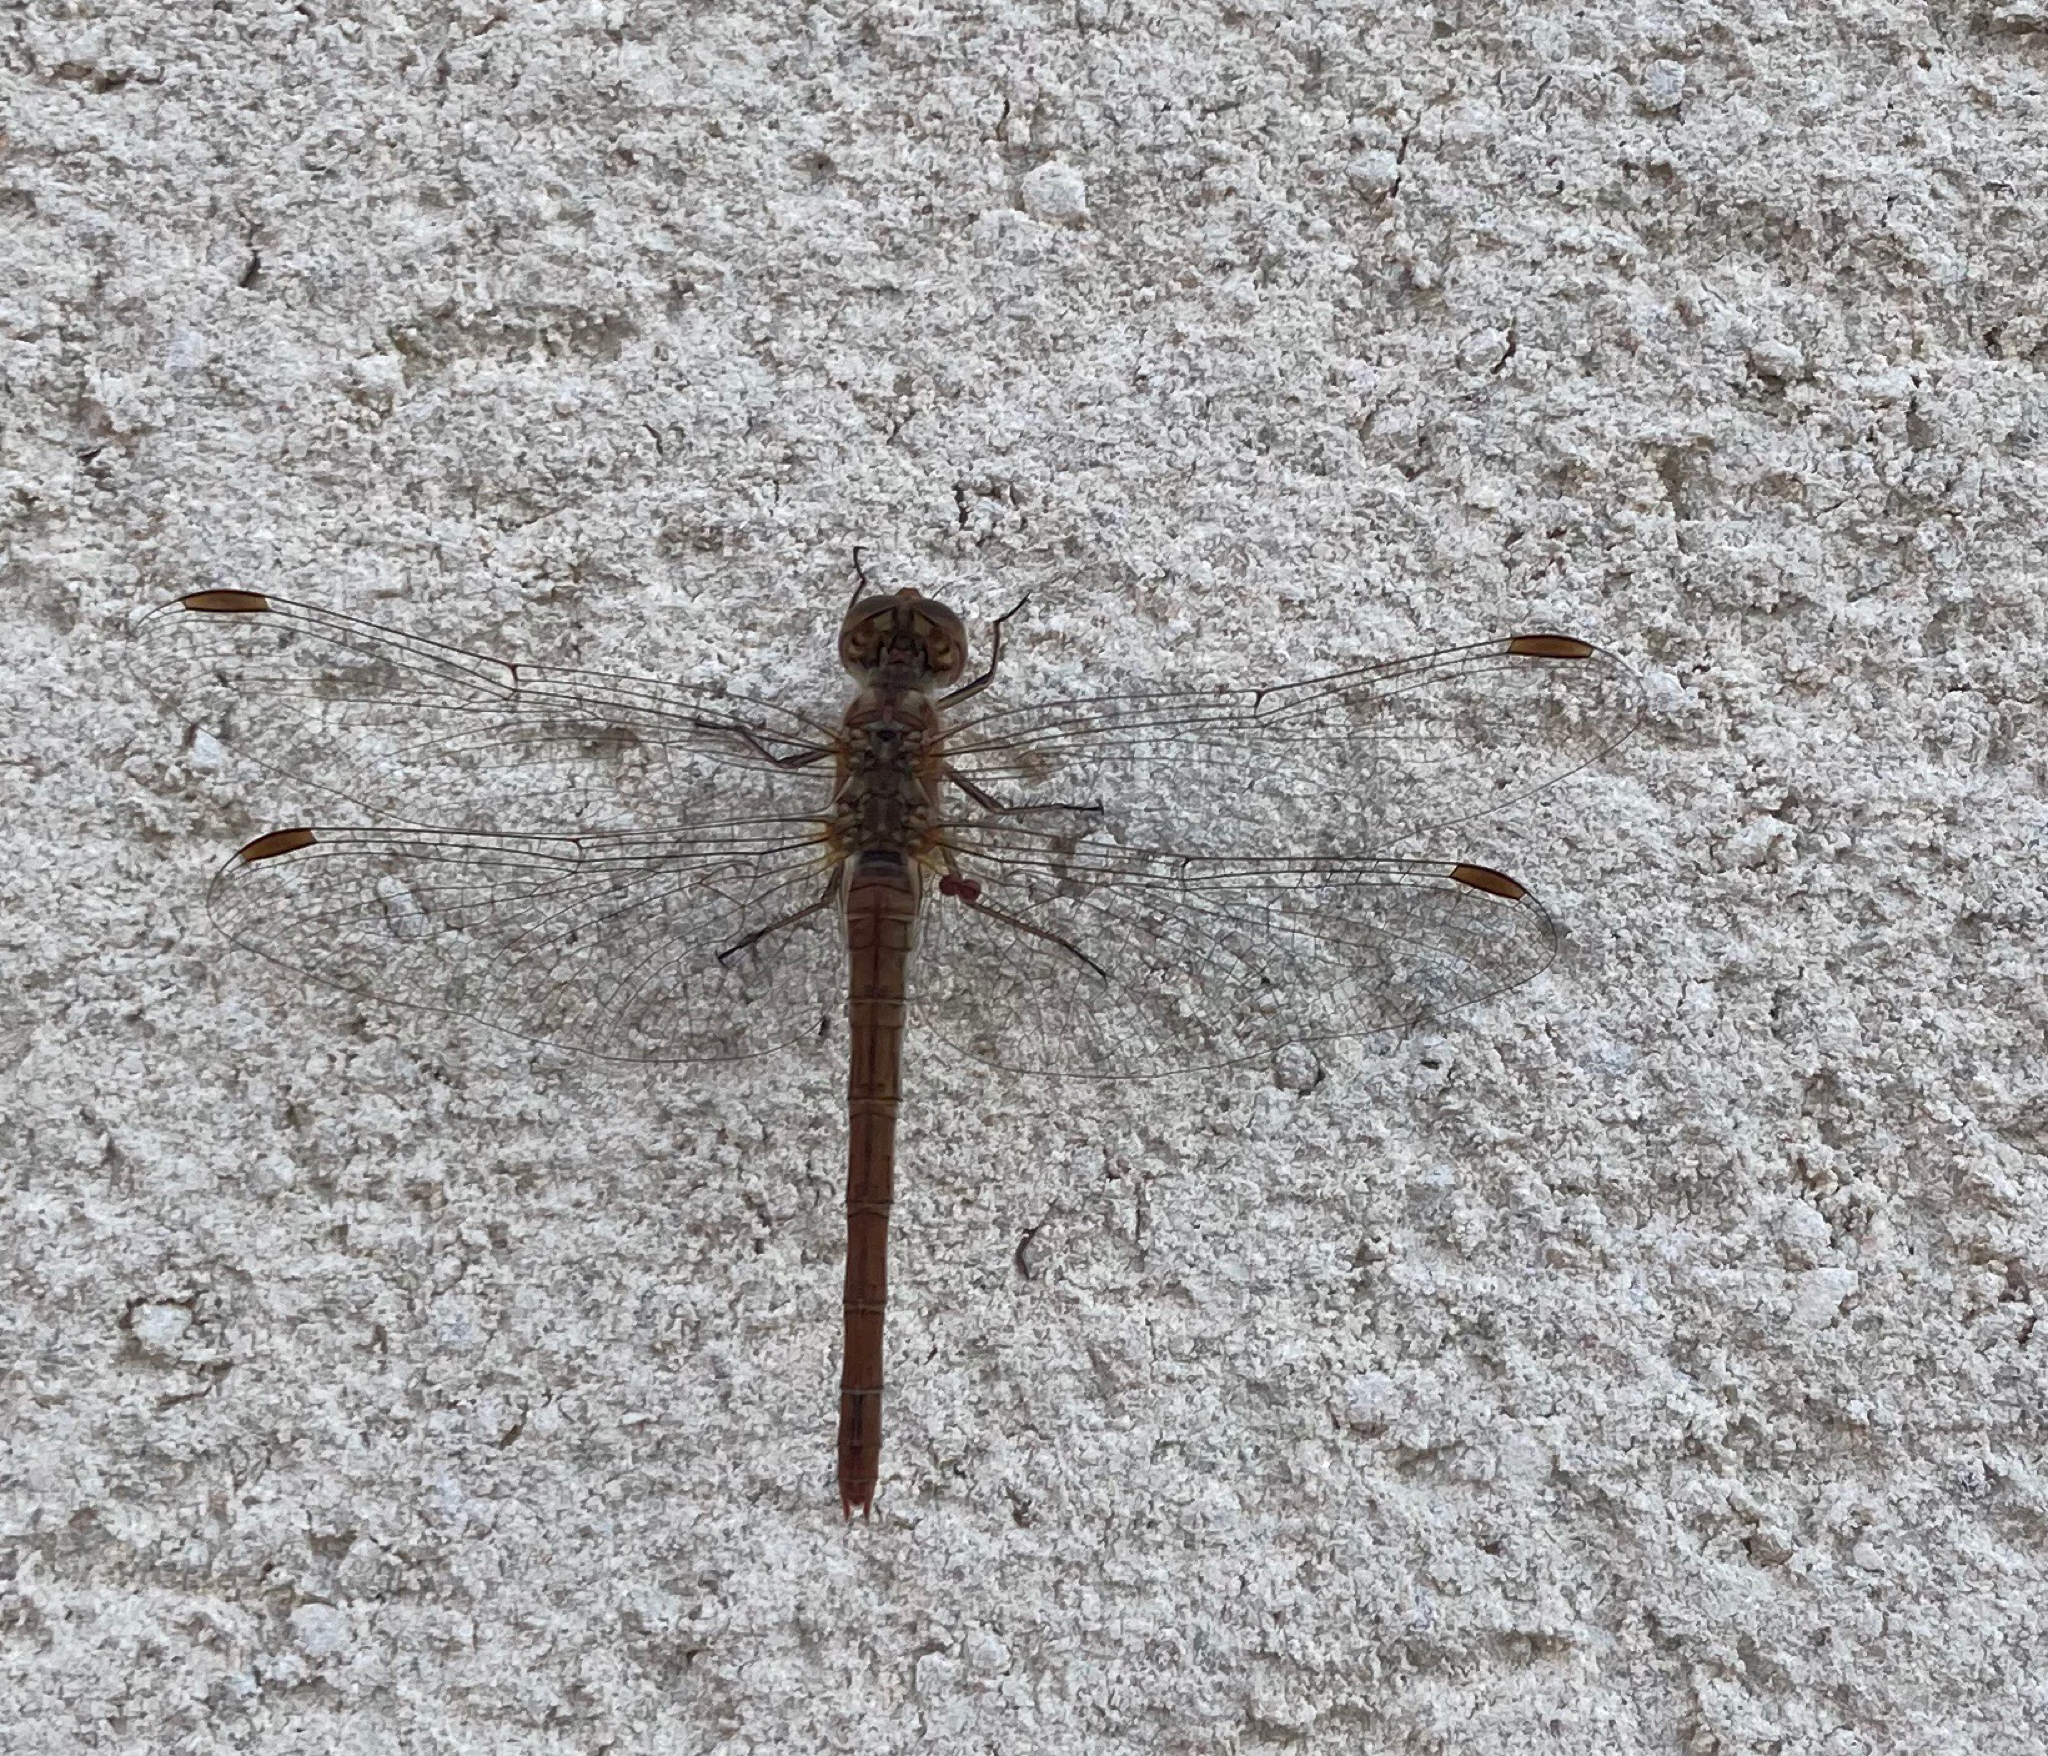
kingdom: Animalia
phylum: Arthropoda
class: Insecta
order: Odonata
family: Libellulidae
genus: Sympetrum
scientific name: Sympetrum meridionale
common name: Southern darter
